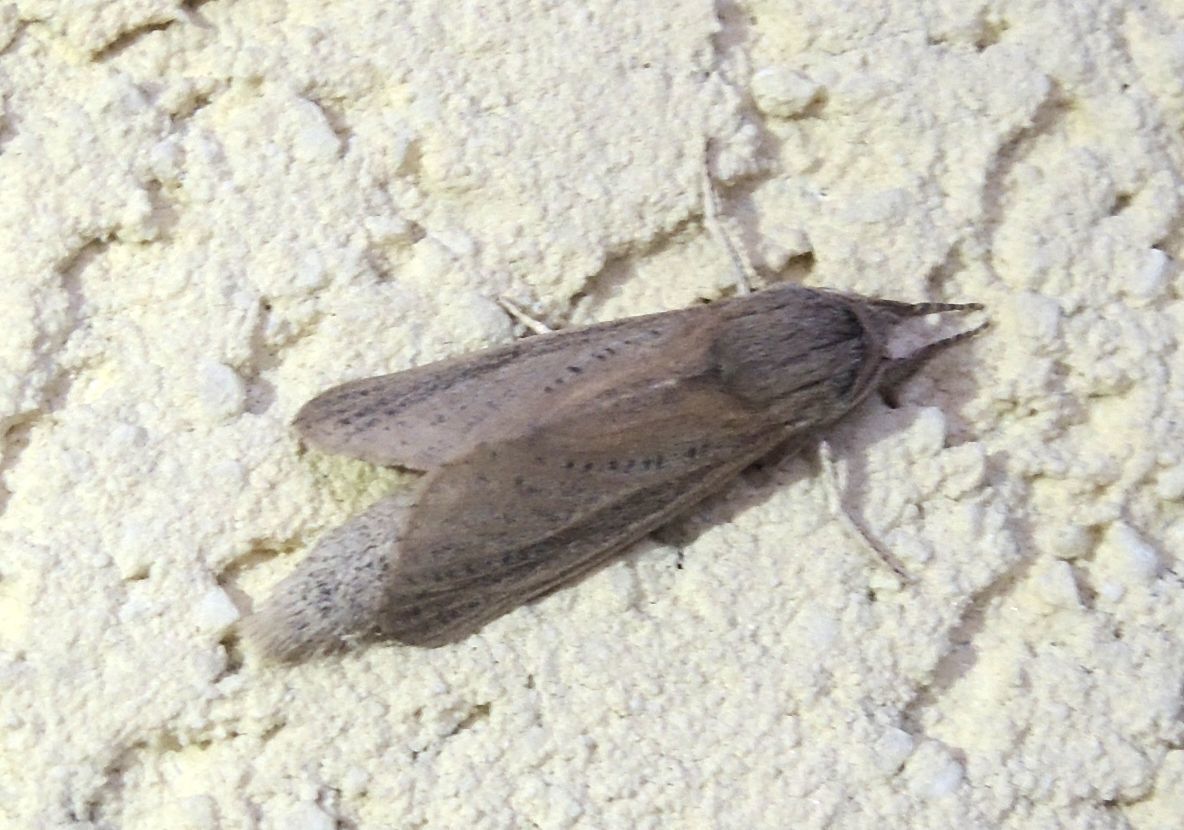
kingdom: Animalia
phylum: Arthropoda
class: Insecta
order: Lepidoptera
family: Cossidae
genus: Phragmataecia
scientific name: Phragmataecia castaneae
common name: Reed leopard
